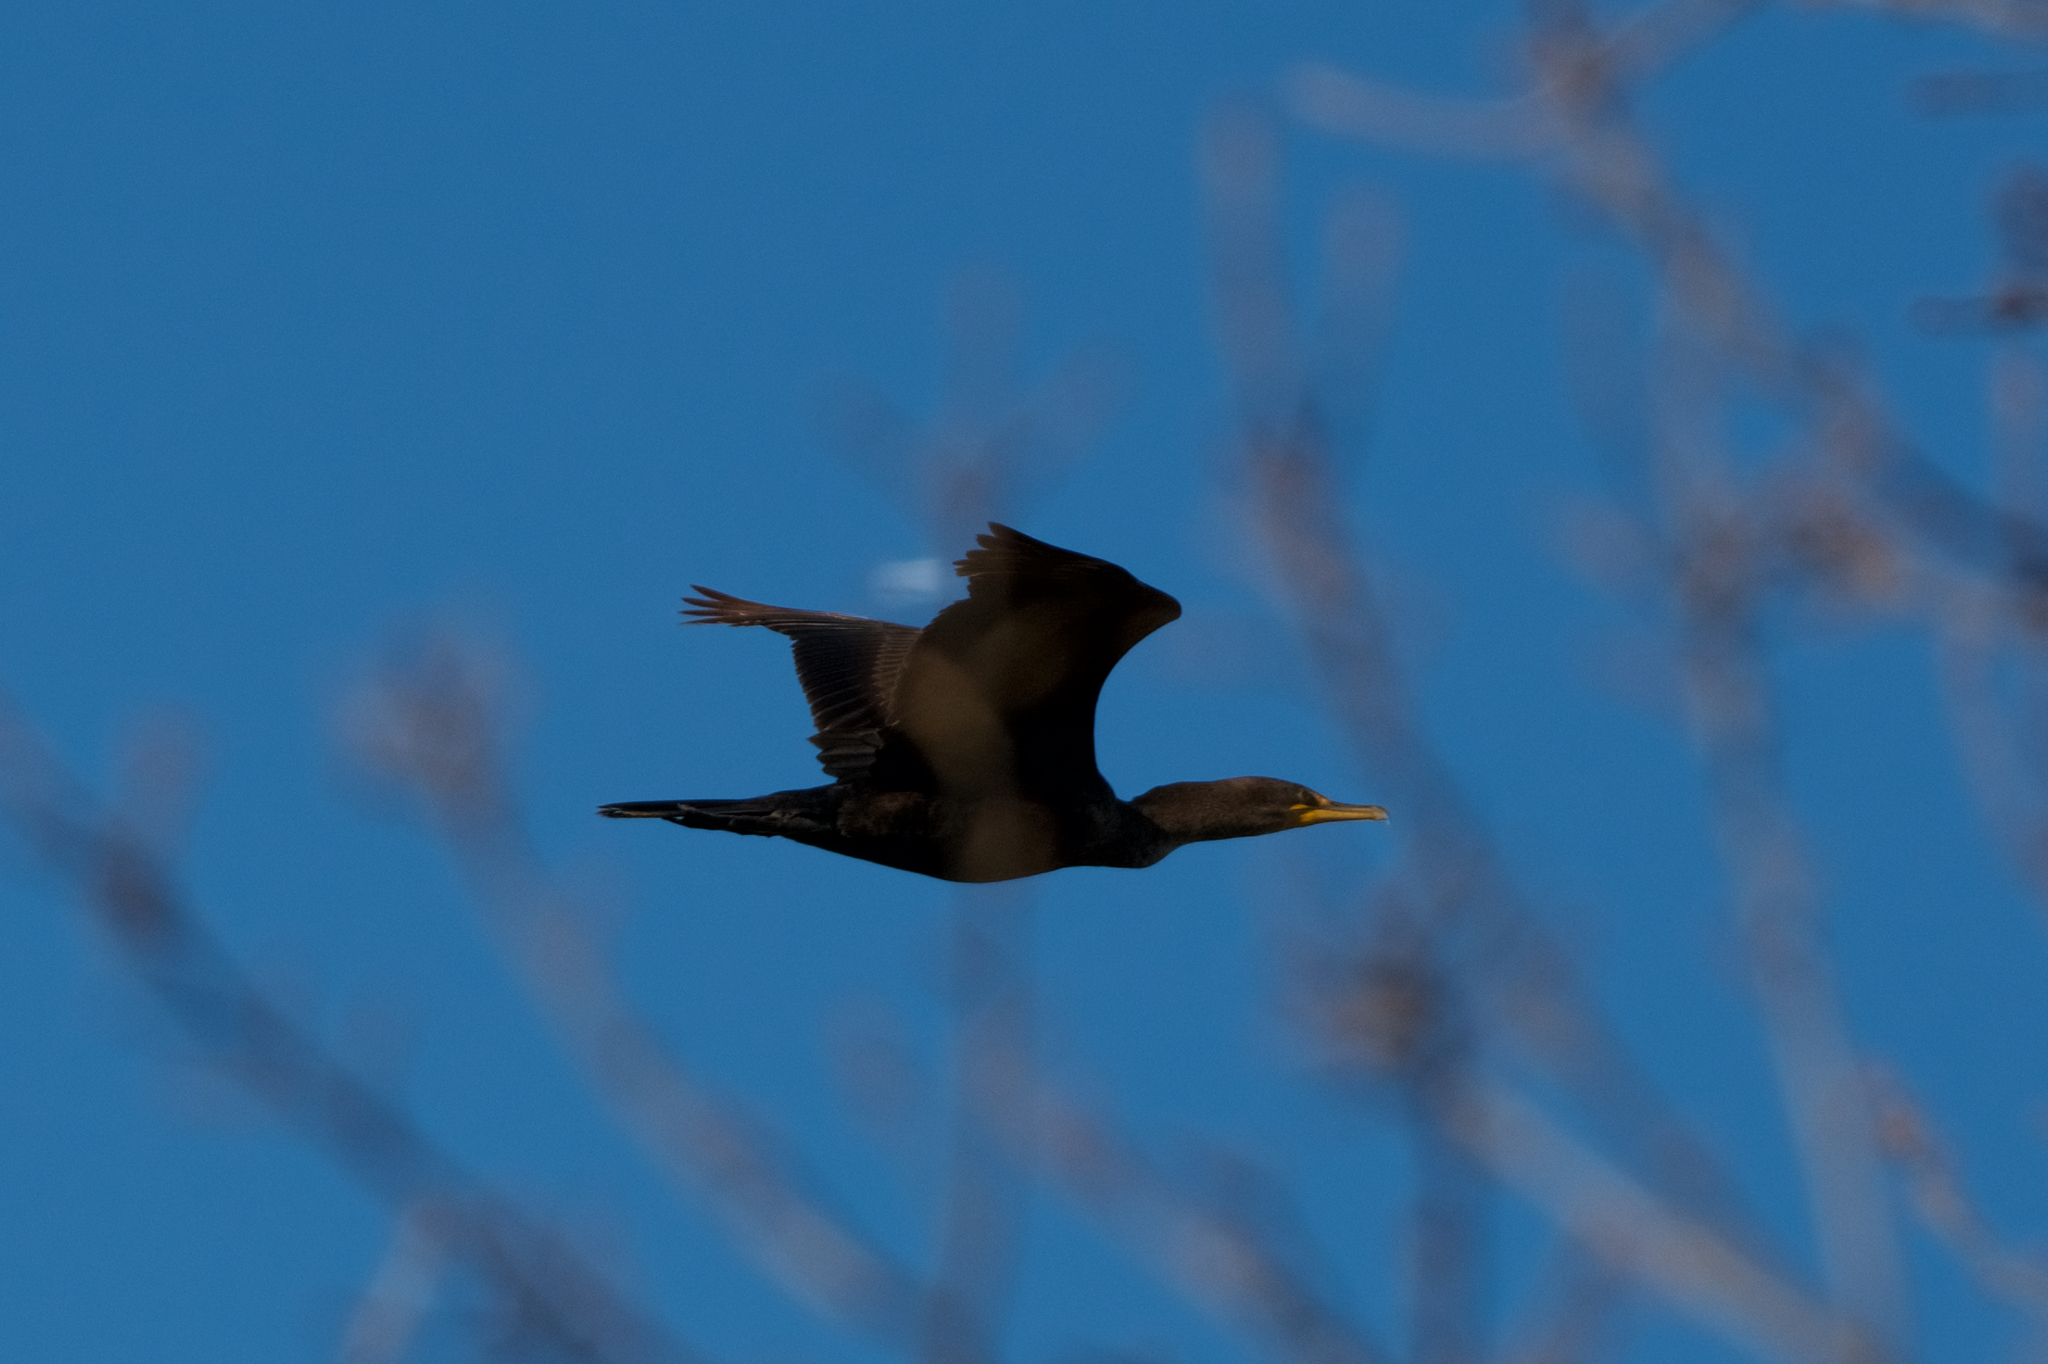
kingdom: Animalia
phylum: Chordata
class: Aves
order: Suliformes
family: Phalacrocoracidae
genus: Phalacrocorax
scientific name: Phalacrocorax auritus
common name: Double-crested cormorant
